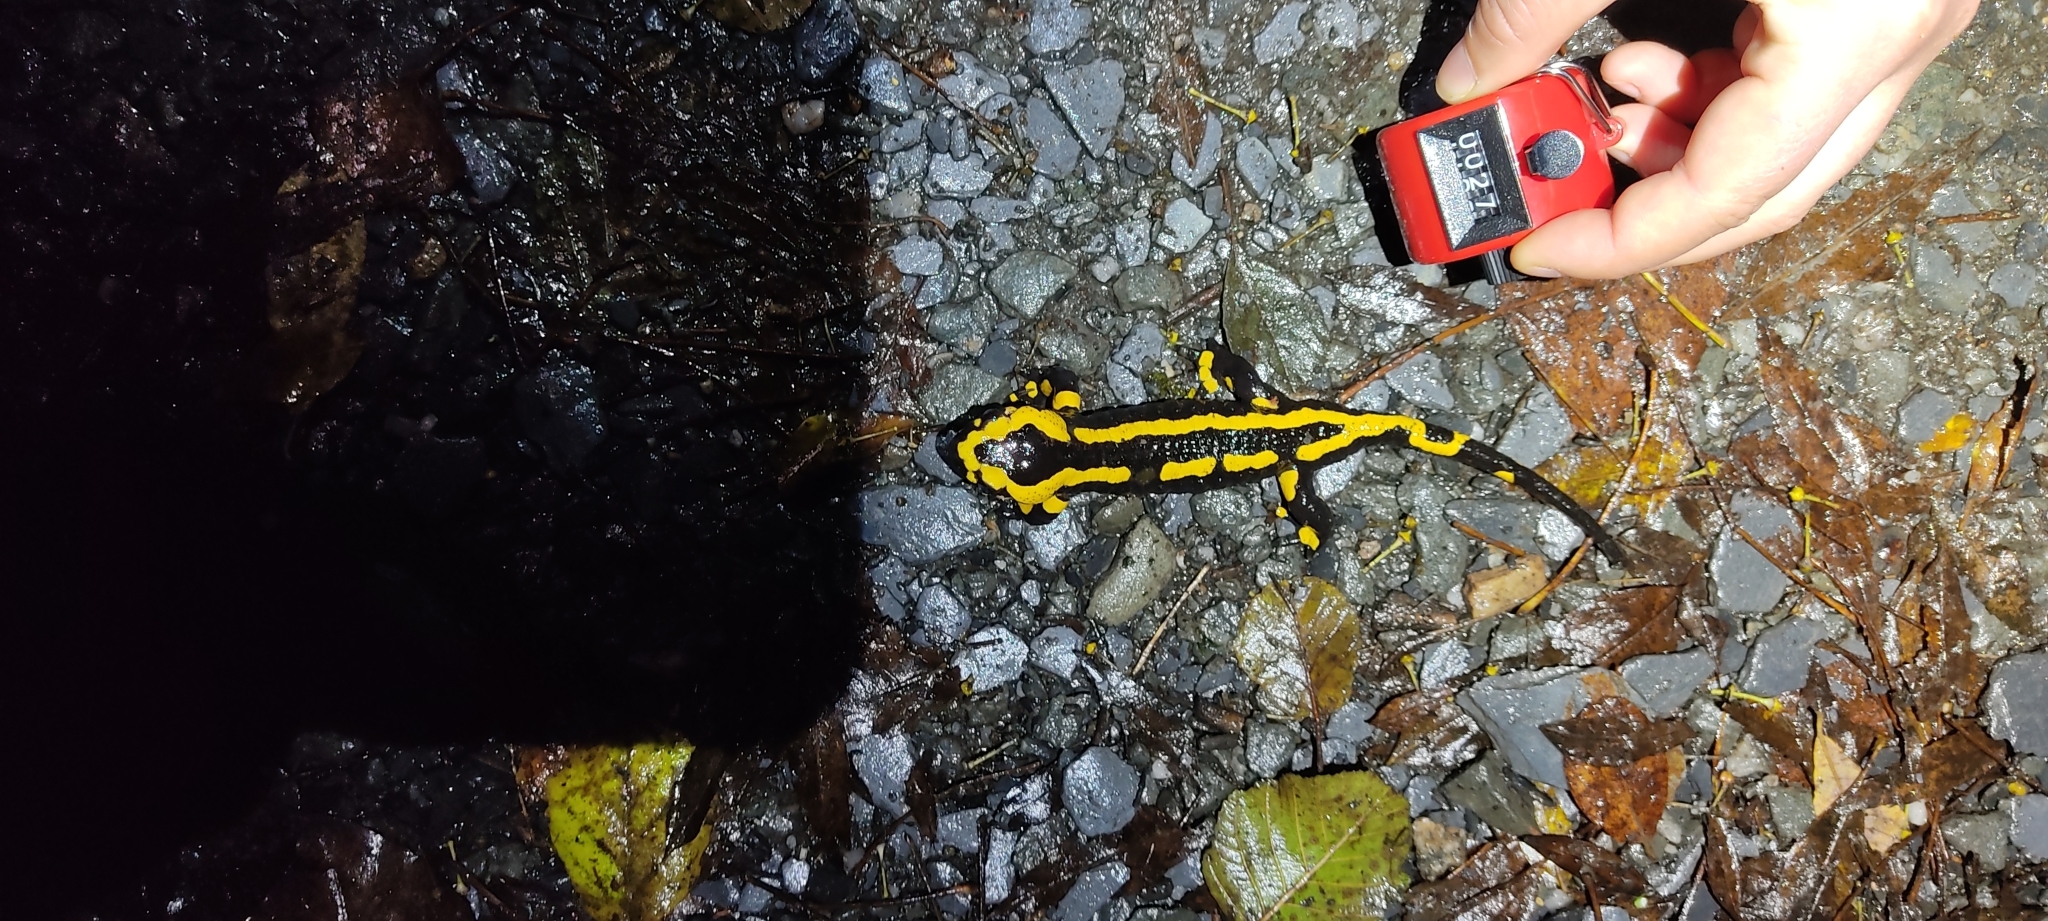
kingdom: Animalia
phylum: Chordata
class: Amphibia
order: Caudata
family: Salamandridae
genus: Salamandra
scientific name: Salamandra salamandra
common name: Fire salamander
